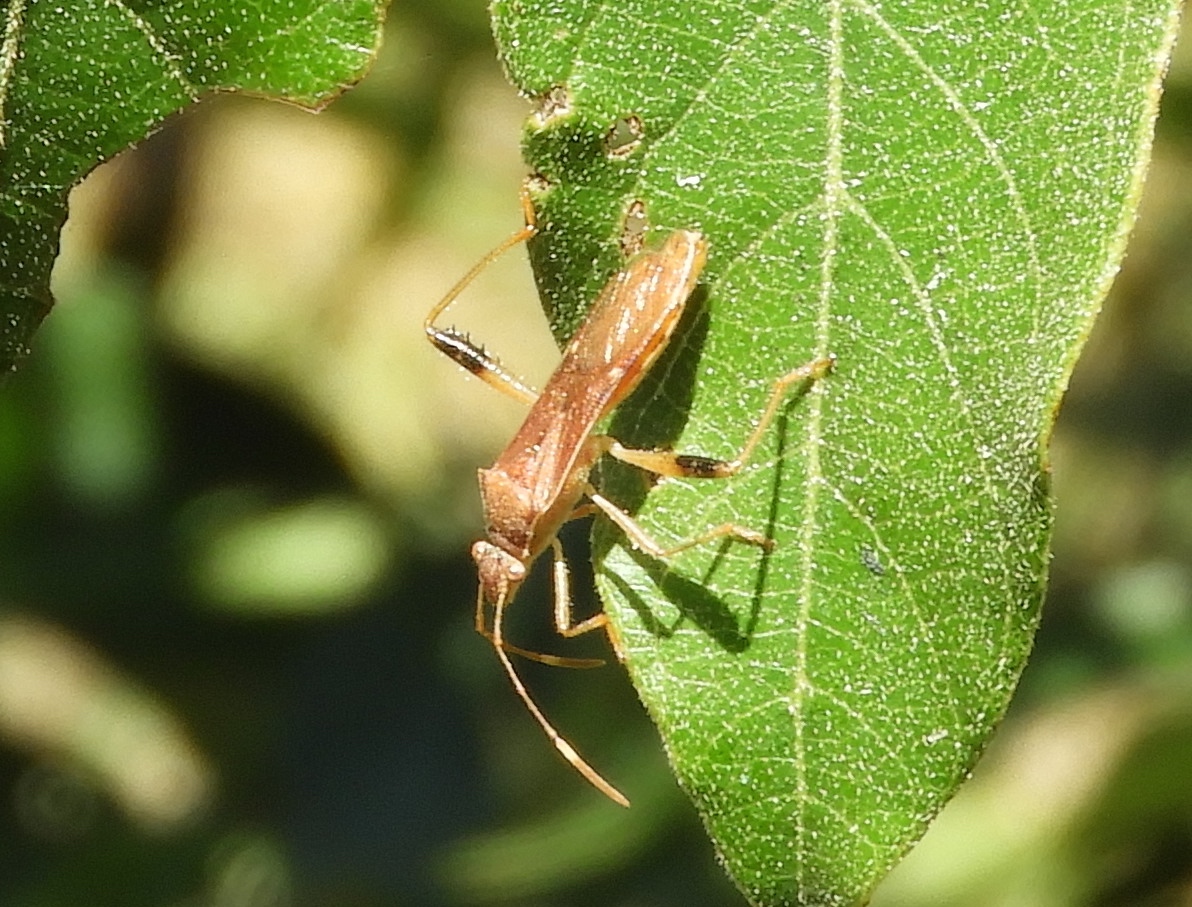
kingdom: Animalia
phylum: Arthropoda
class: Insecta
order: Hemiptera
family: Alydidae
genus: Burtinus
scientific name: Burtinus notatipennis
